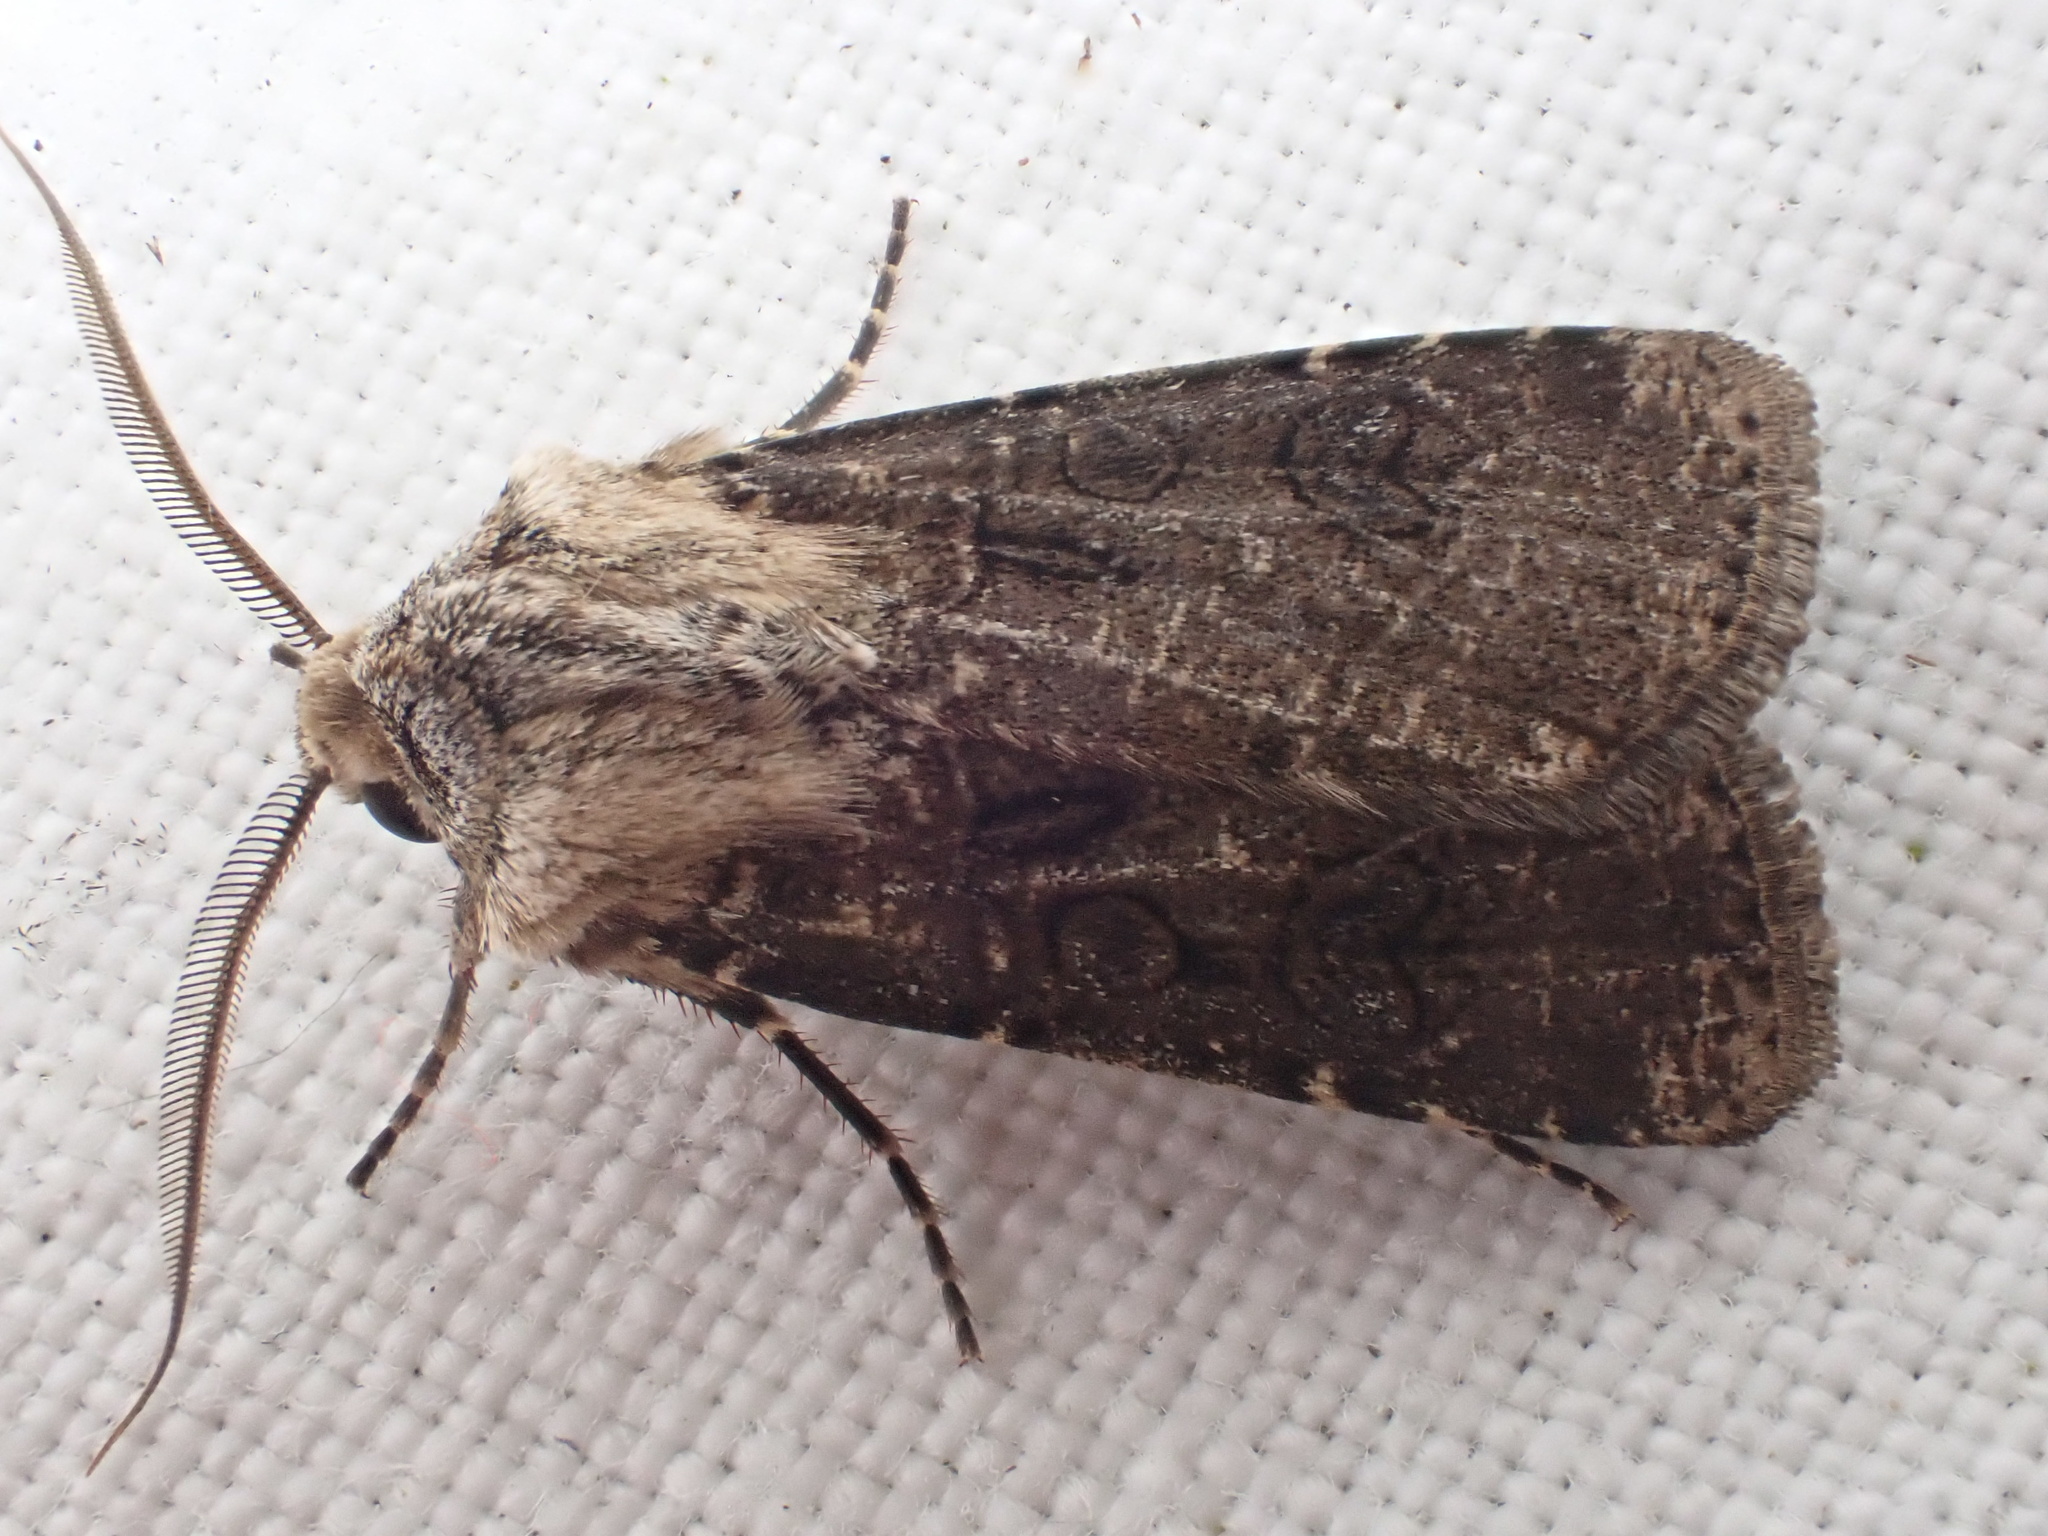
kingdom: Animalia
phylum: Arthropoda
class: Insecta
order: Lepidoptera
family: Noctuidae
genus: Agrotis
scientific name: Agrotis clavis
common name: Heart and club
